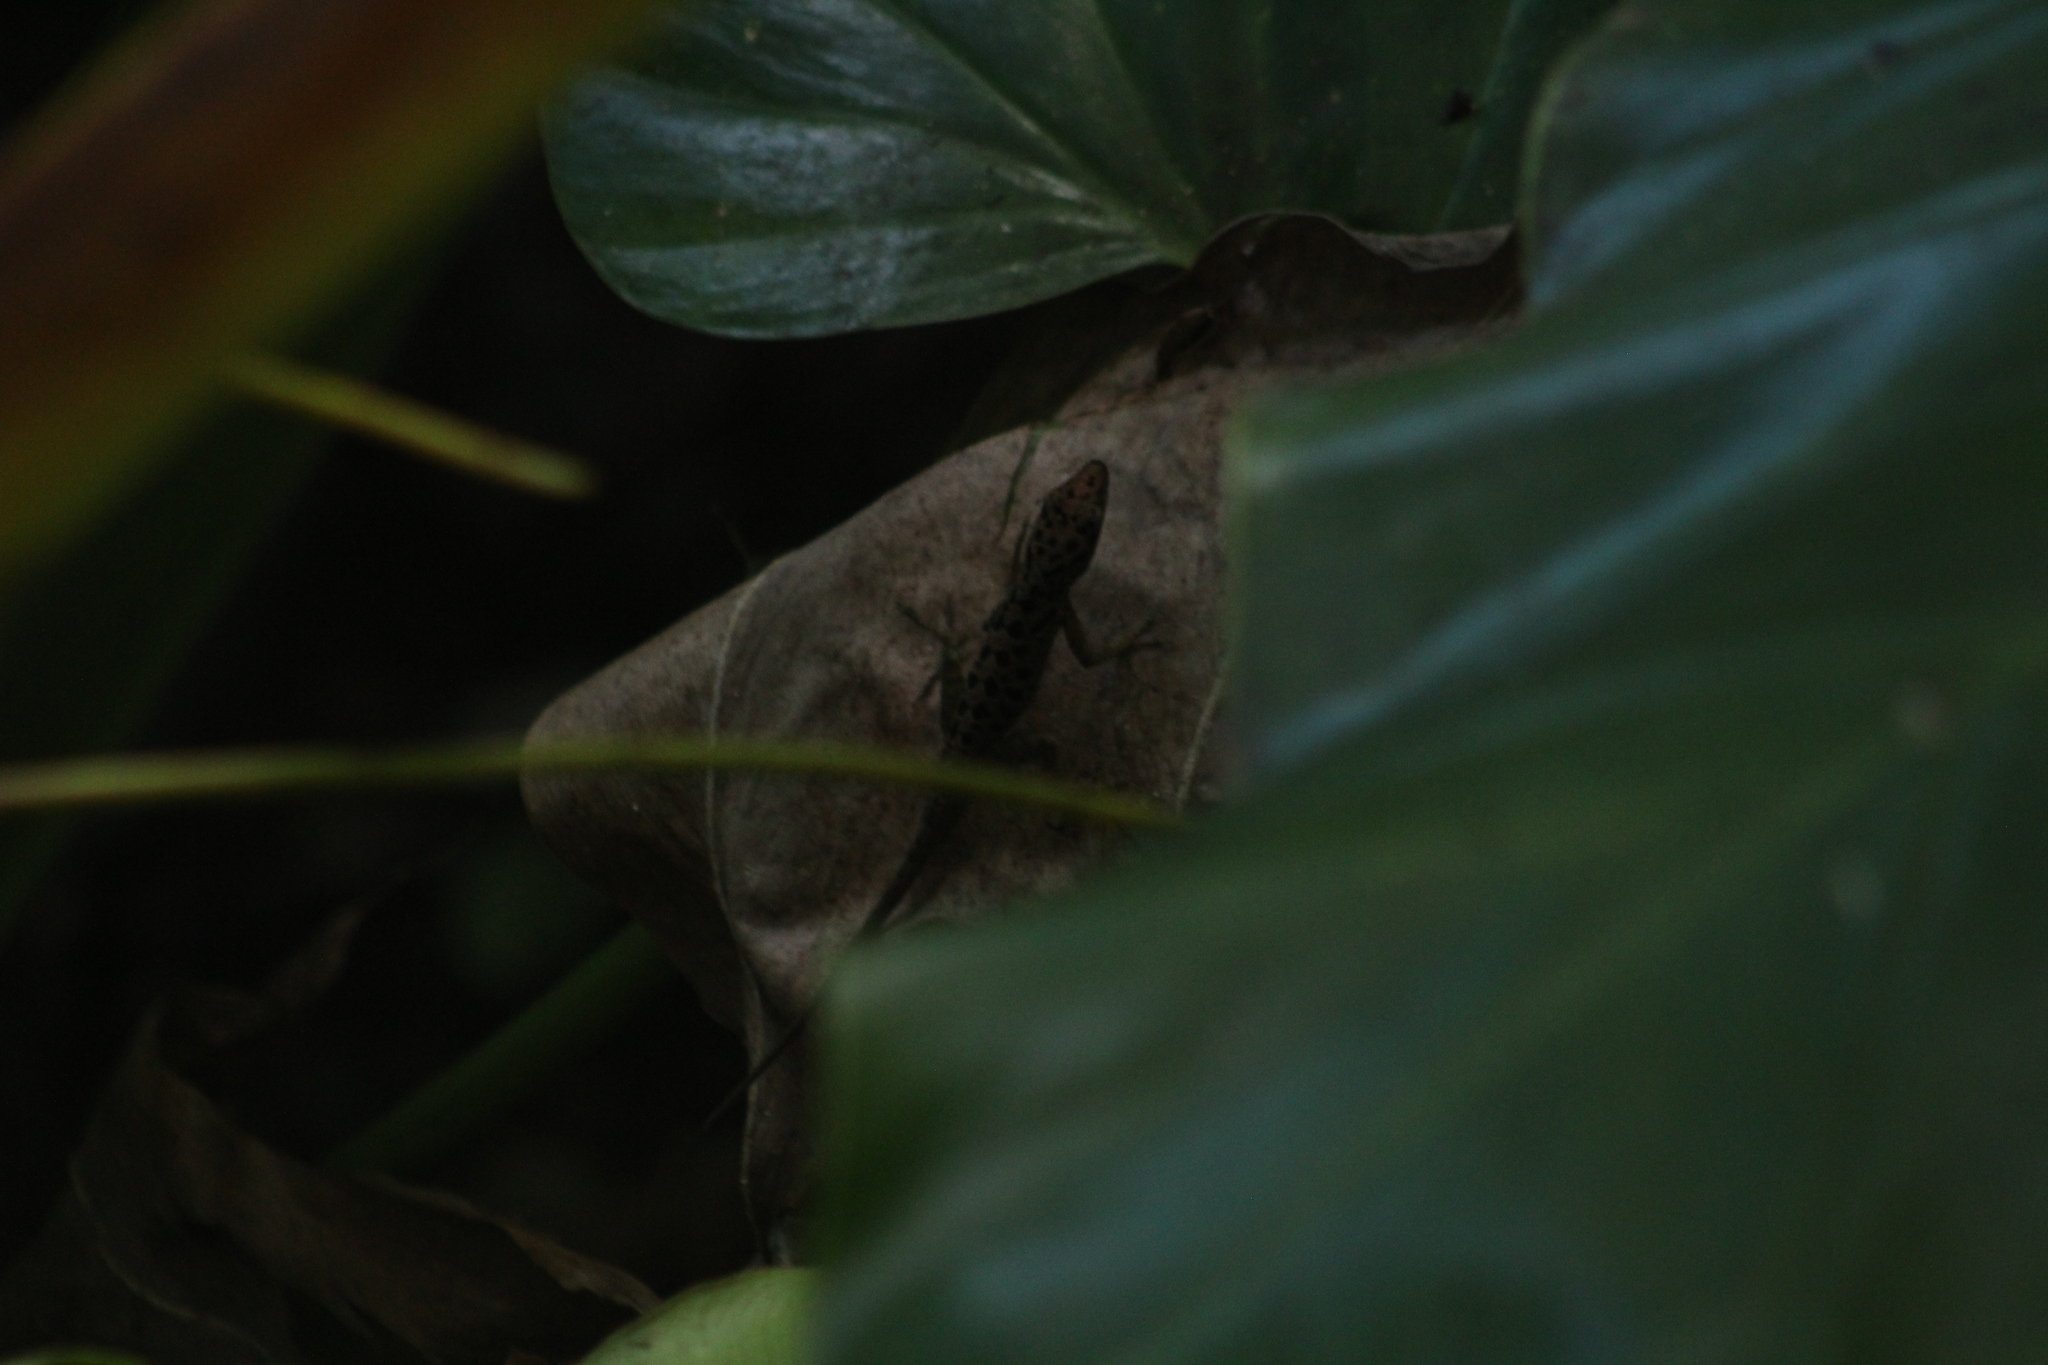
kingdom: Animalia
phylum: Chordata
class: Squamata
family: Dactyloidae
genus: Anolis
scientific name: Anolis sabanus
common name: Saba anole
